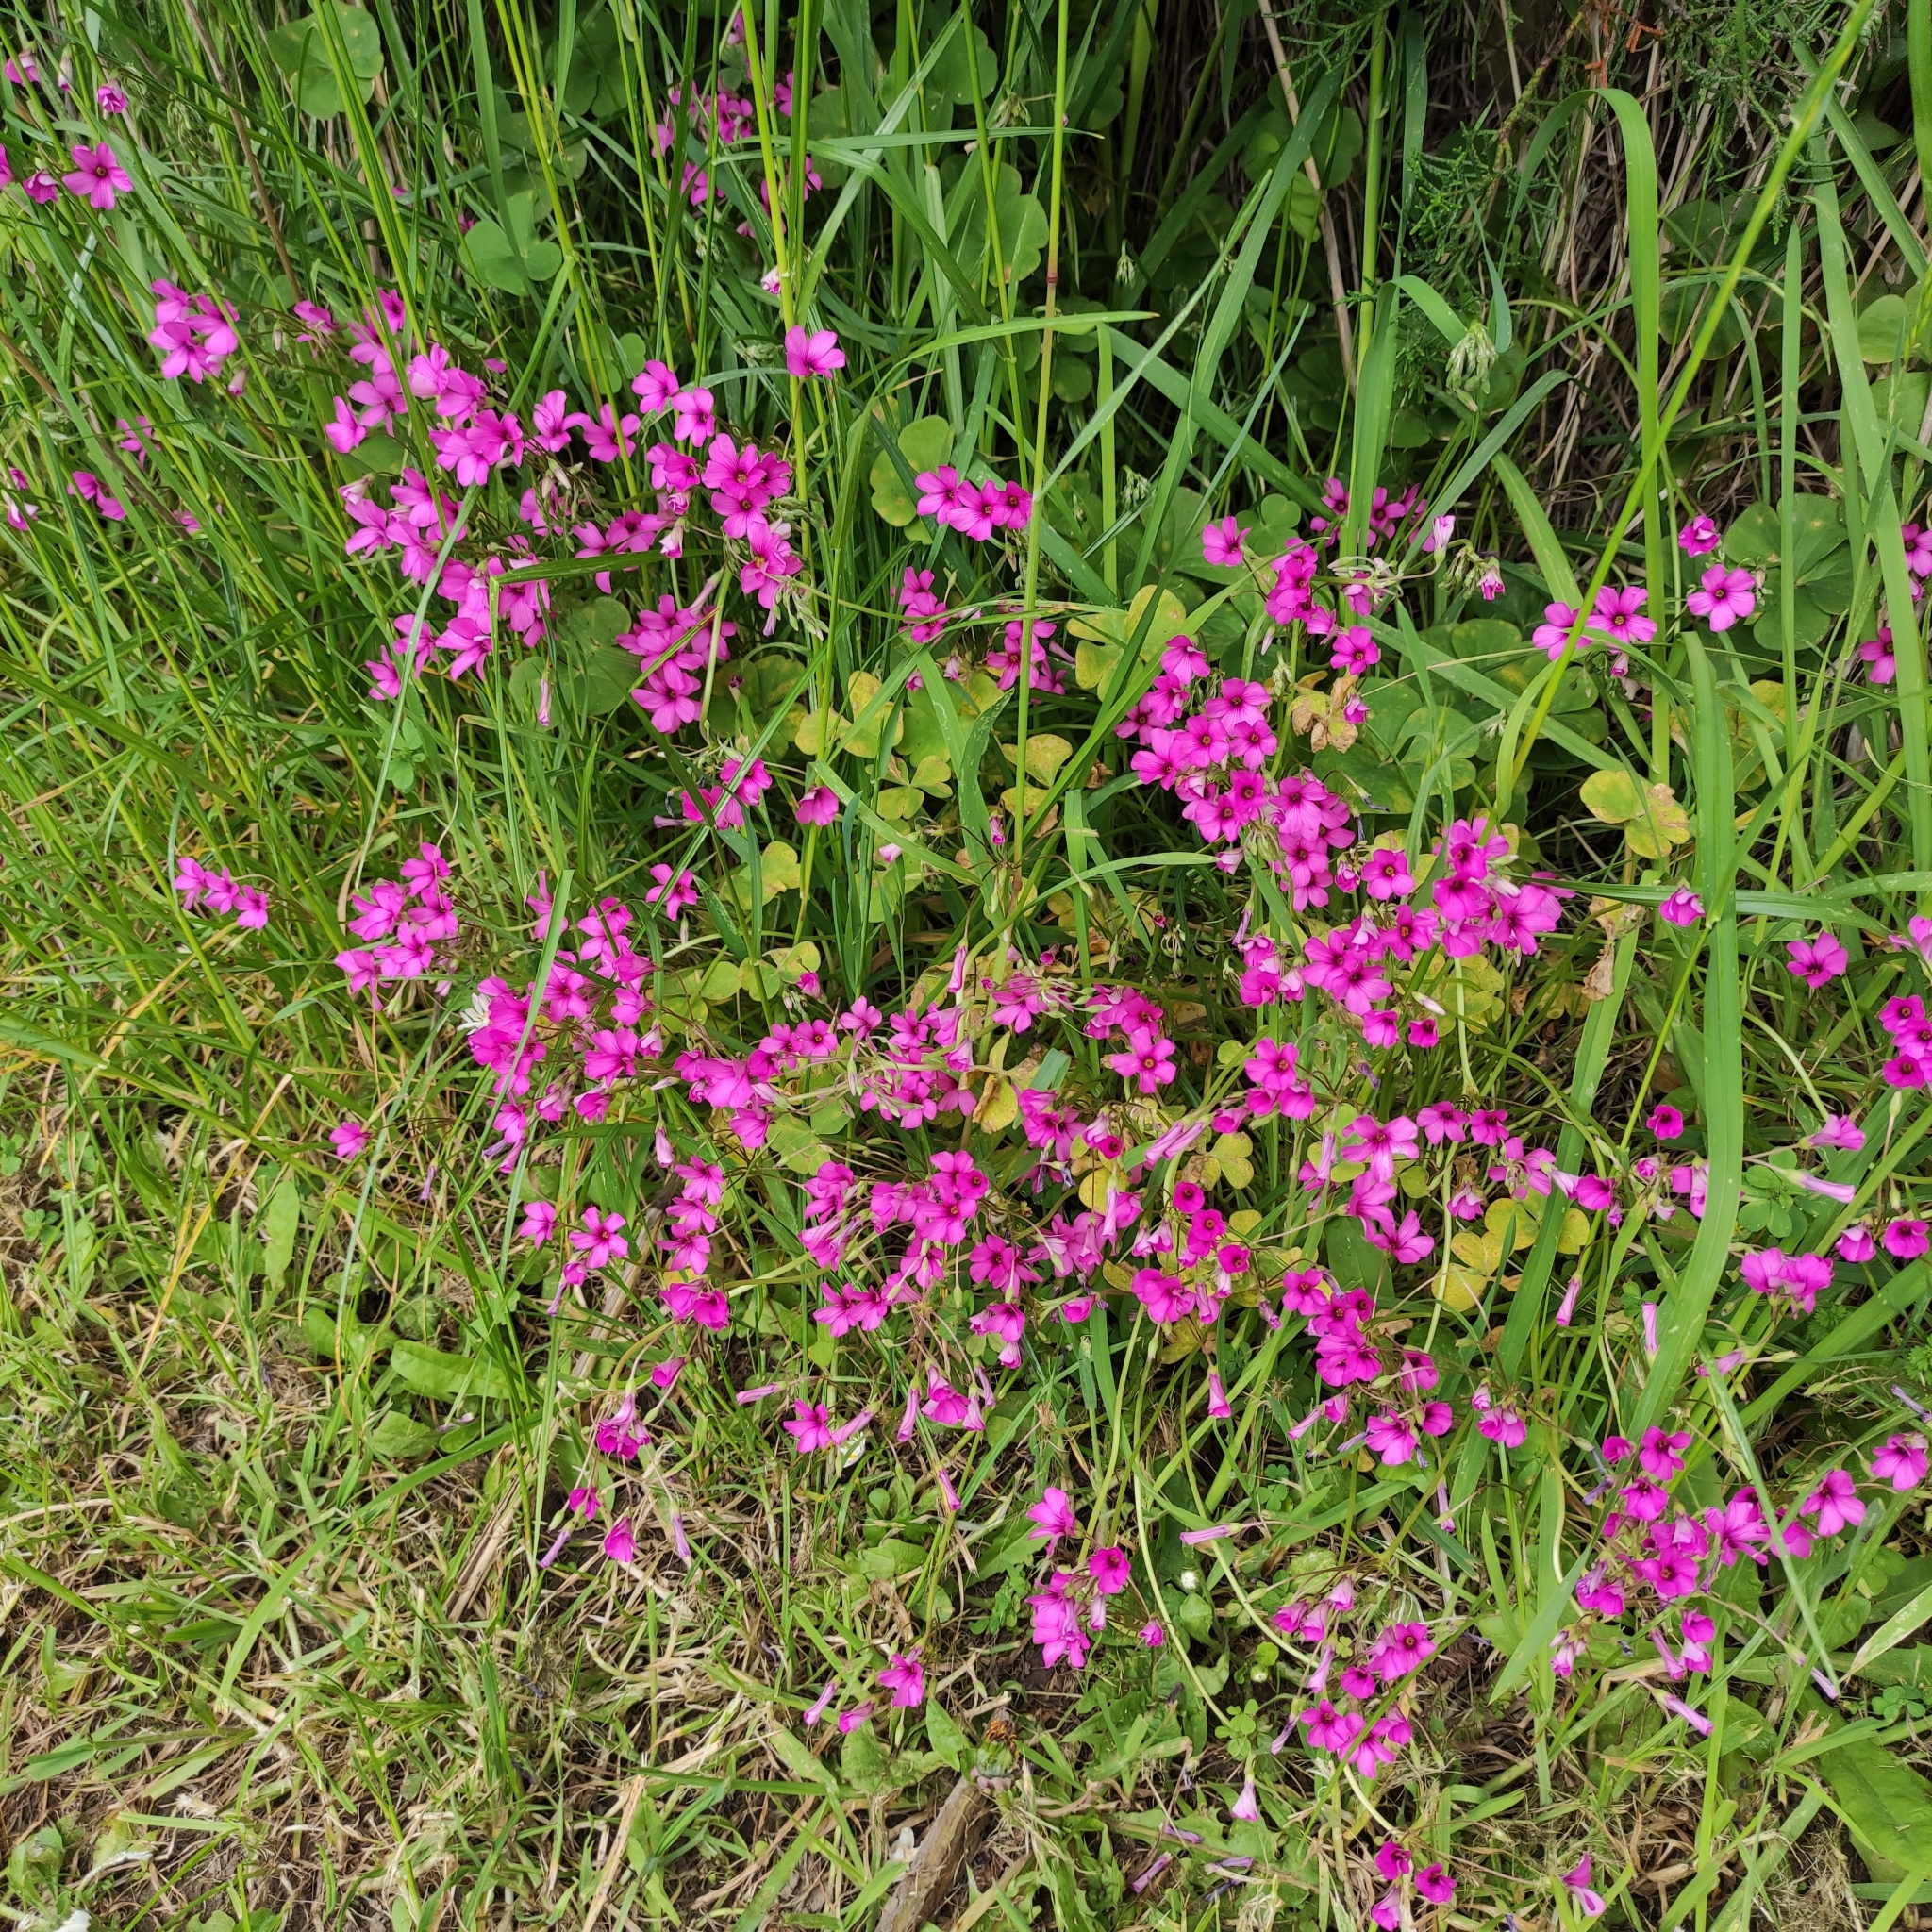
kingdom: Plantae
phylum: Tracheophyta
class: Magnoliopsida
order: Oxalidales
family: Oxalidaceae
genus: Oxalis
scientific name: Oxalis articulata
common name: Pink-sorrel
